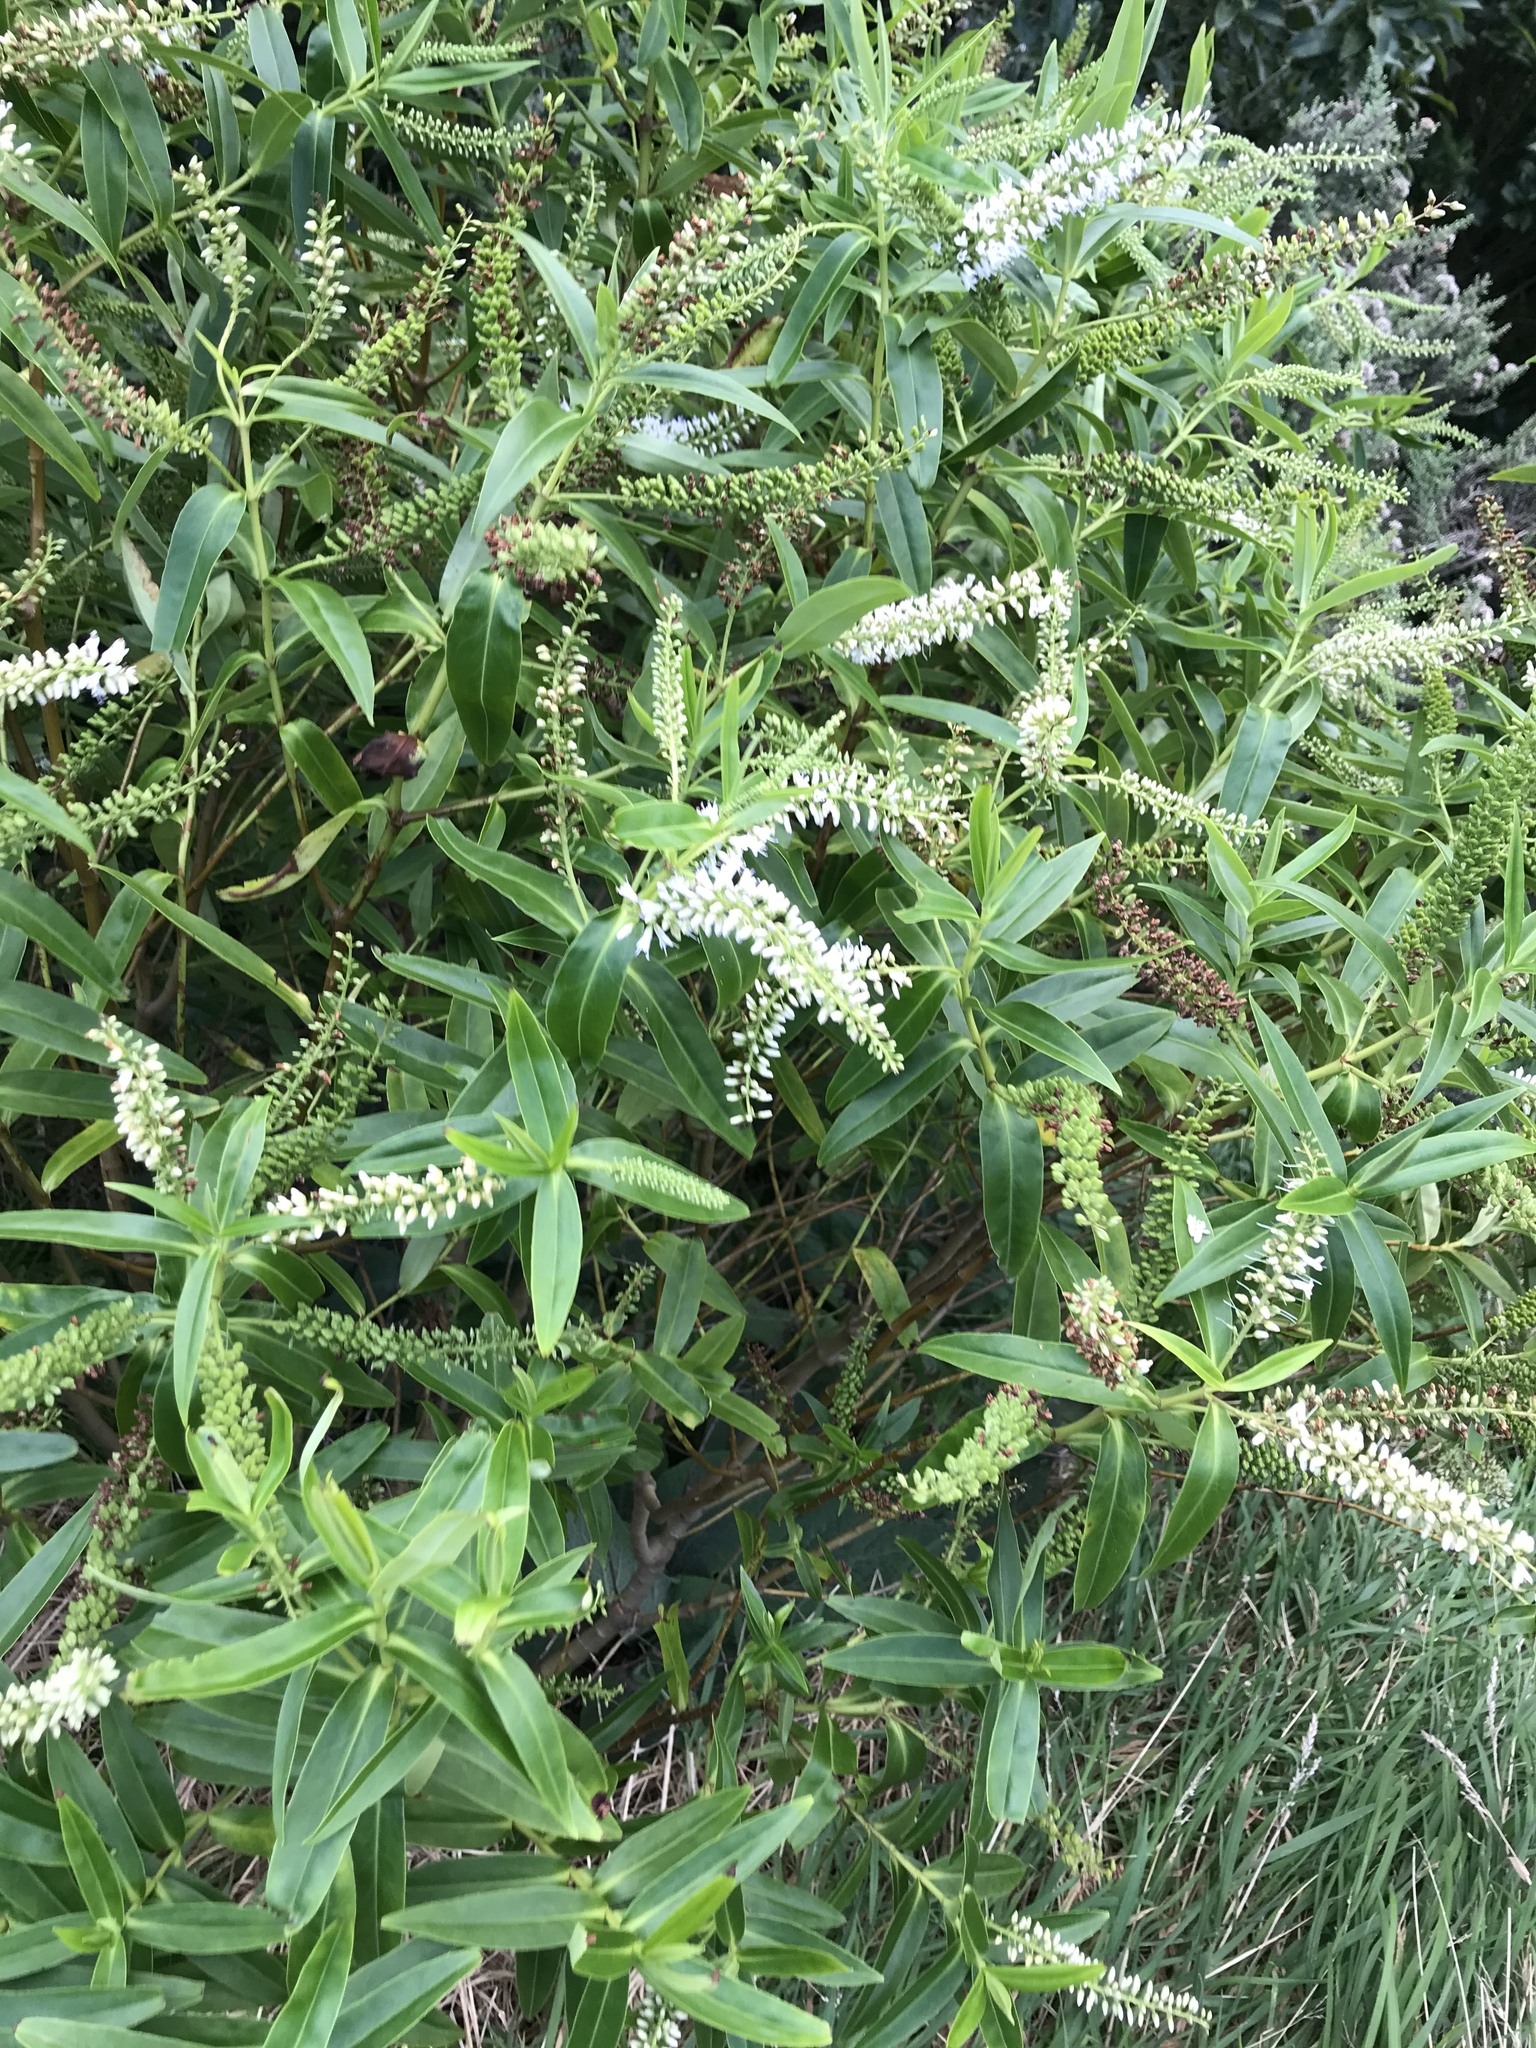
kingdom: Plantae
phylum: Tracheophyta
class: Magnoliopsida
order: Lamiales
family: Plantaginaceae
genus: Veronica
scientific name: Veronica stricta
